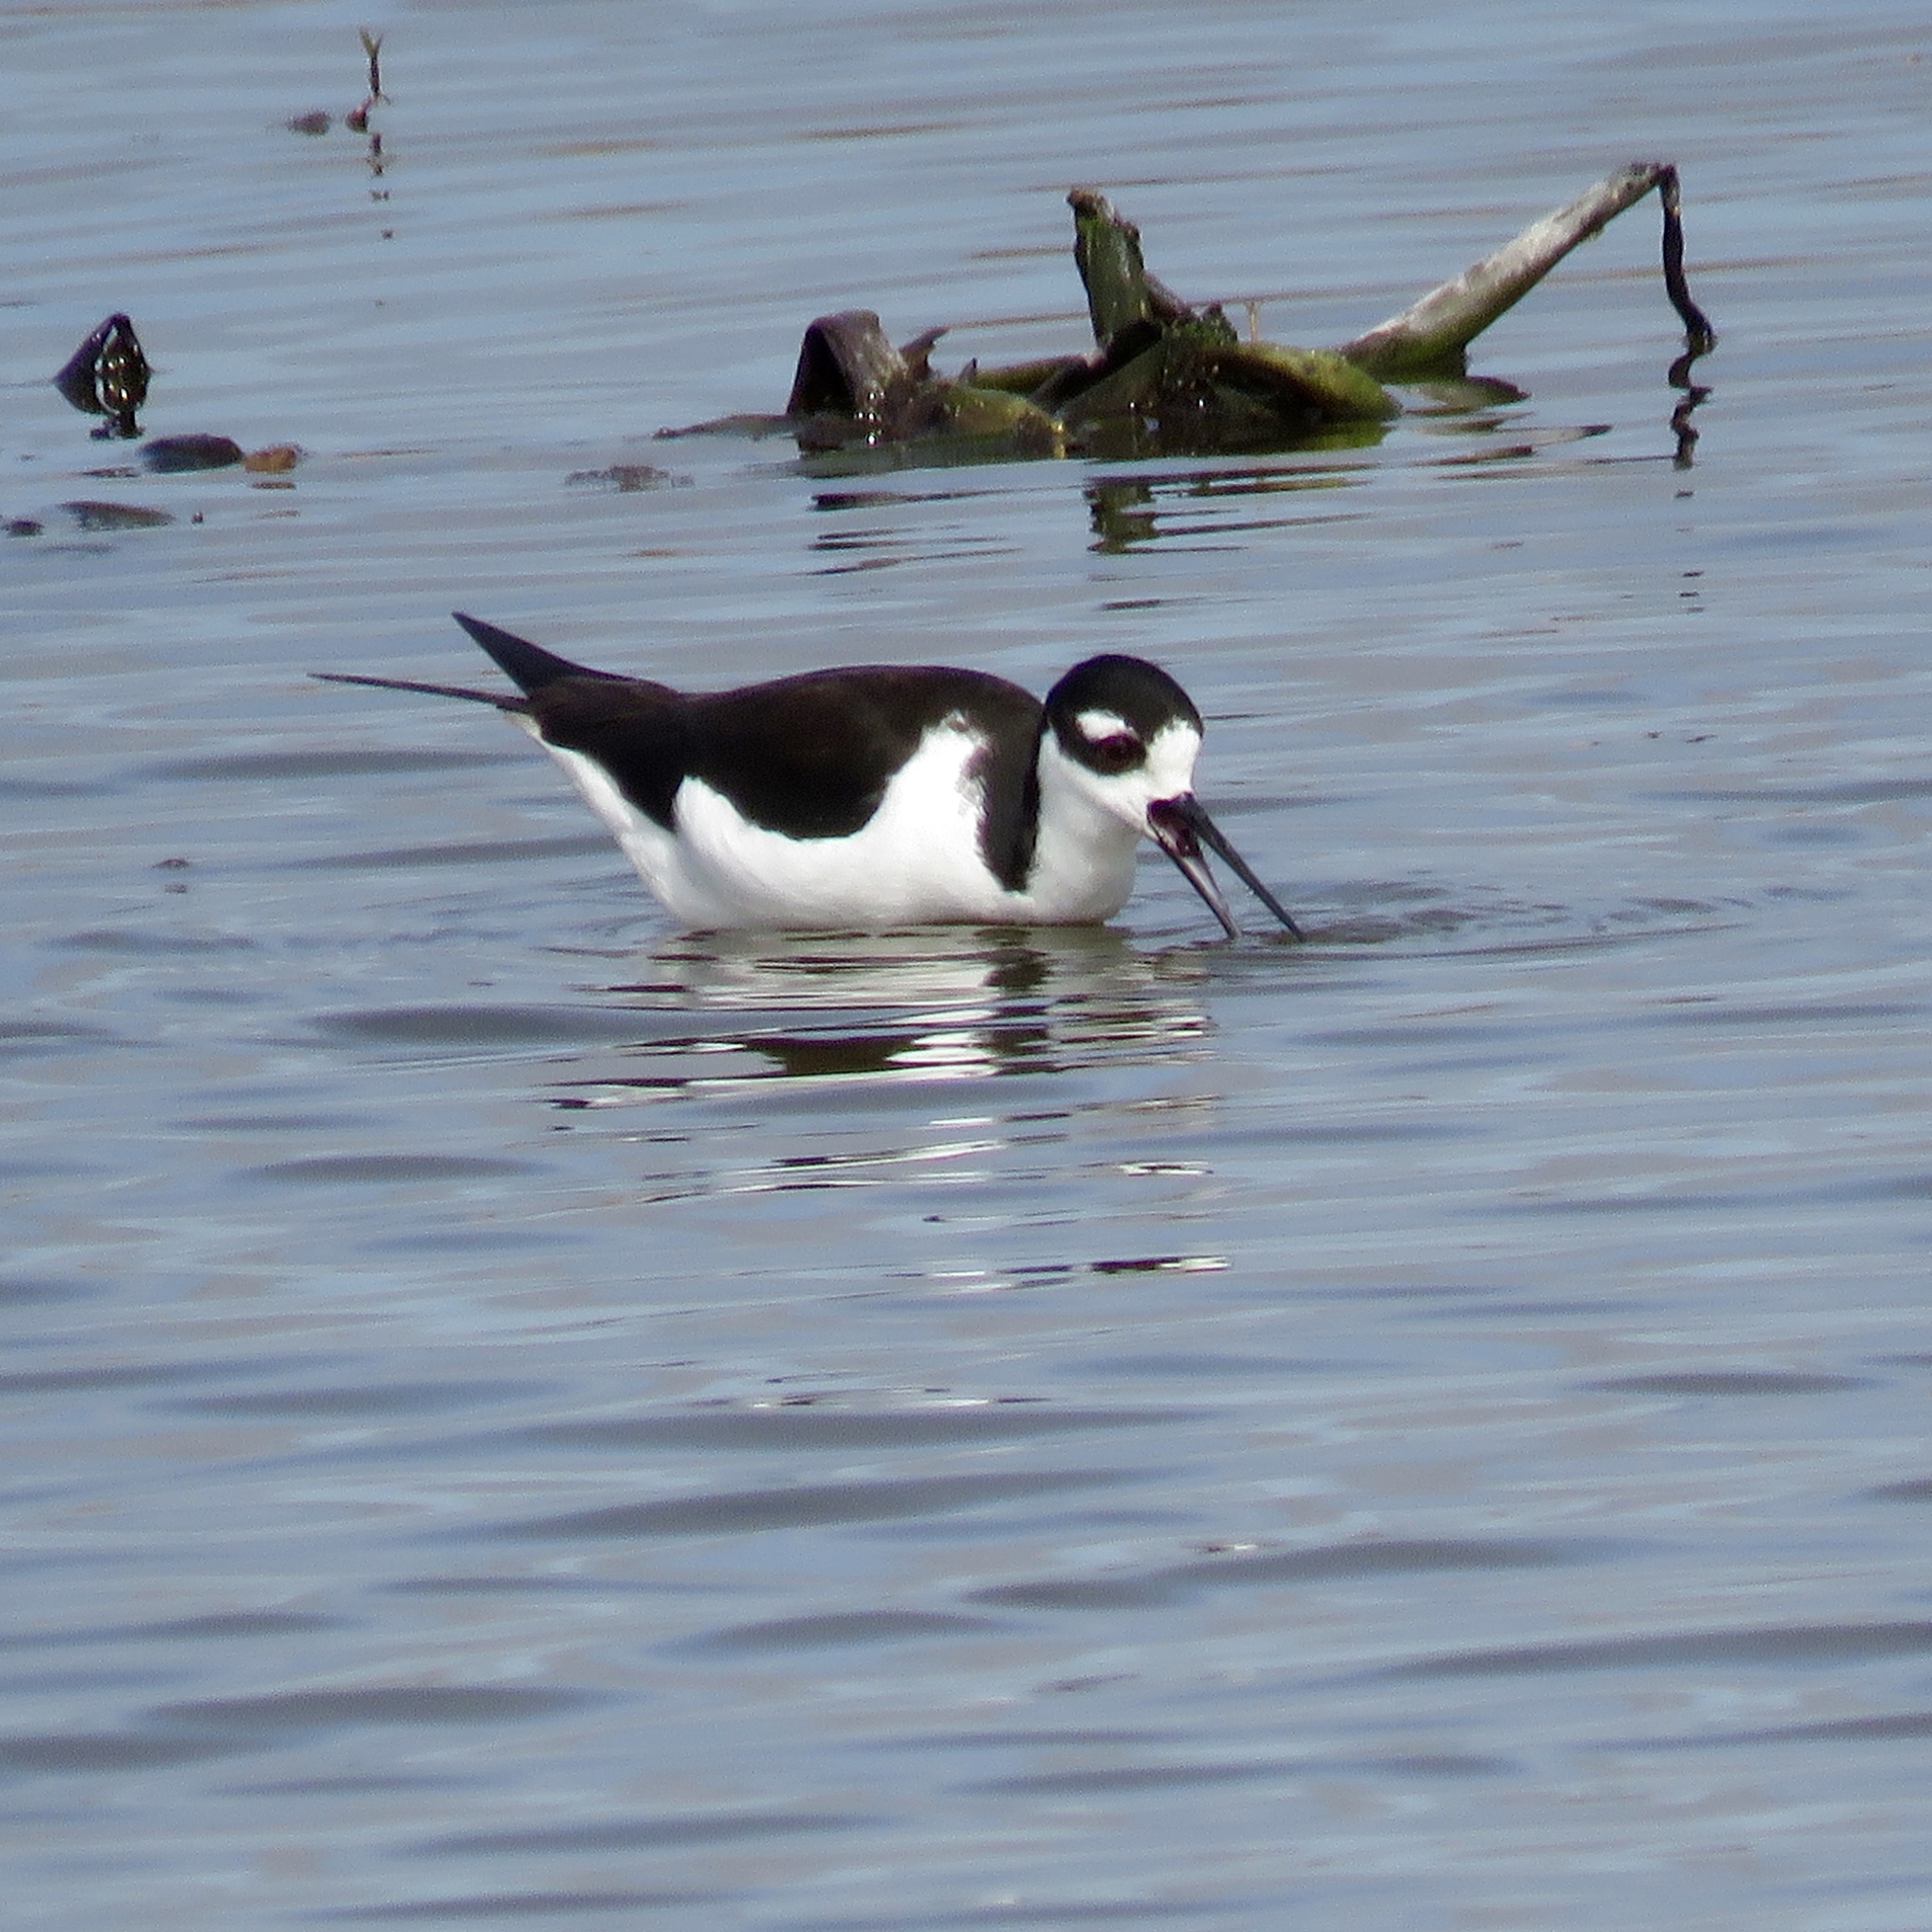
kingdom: Animalia
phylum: Chordata
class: Aves
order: Charadriiformes
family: Recurvirostridae
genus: Himantopus
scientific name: Himantopus mexicanus
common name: Black-necked stilt
